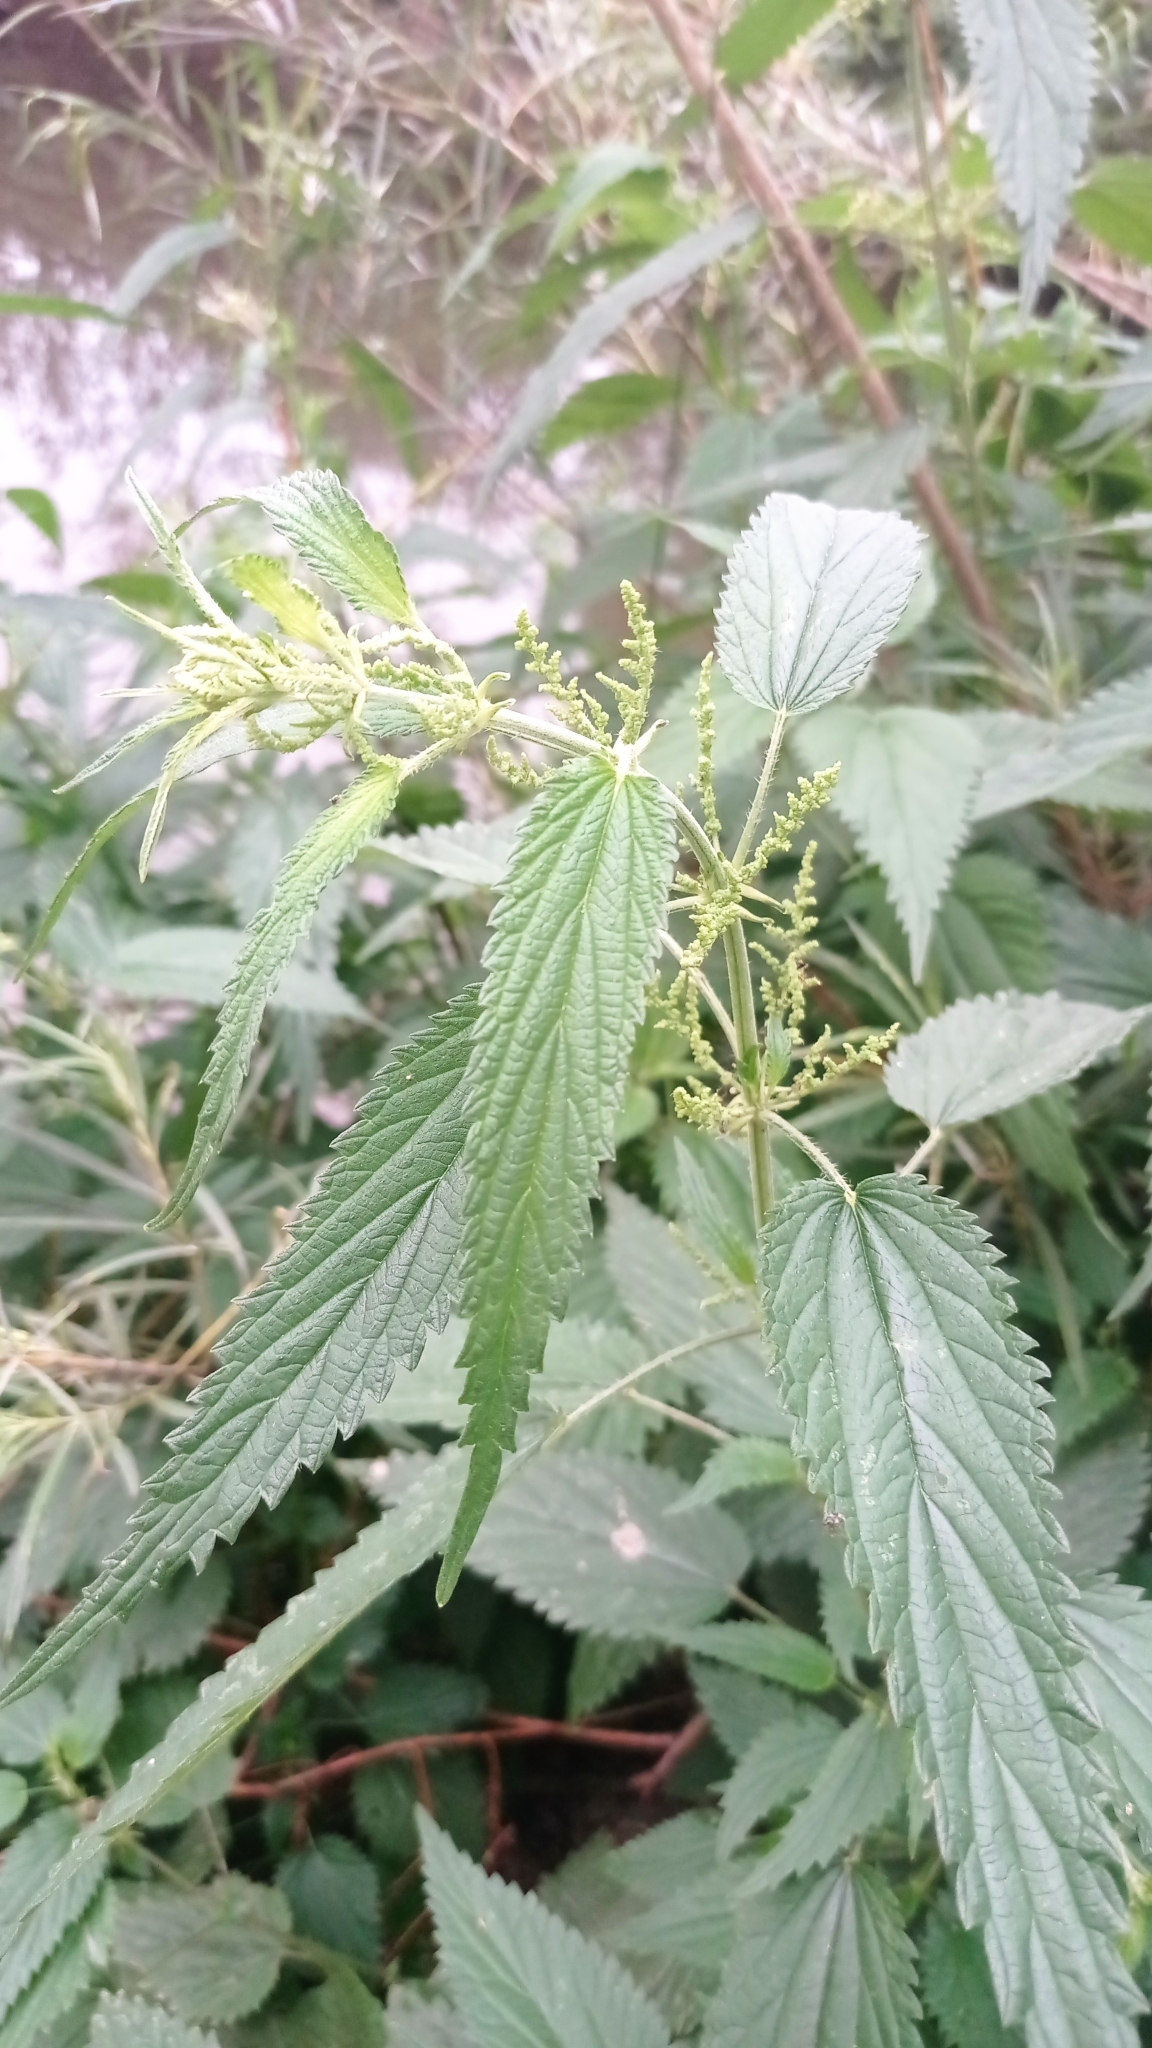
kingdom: Plantae
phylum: Tracheophyta
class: Magnoliopsida
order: Rosales
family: Urticaceae
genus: Urtica
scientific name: Urtica dioica
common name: Common nettle
